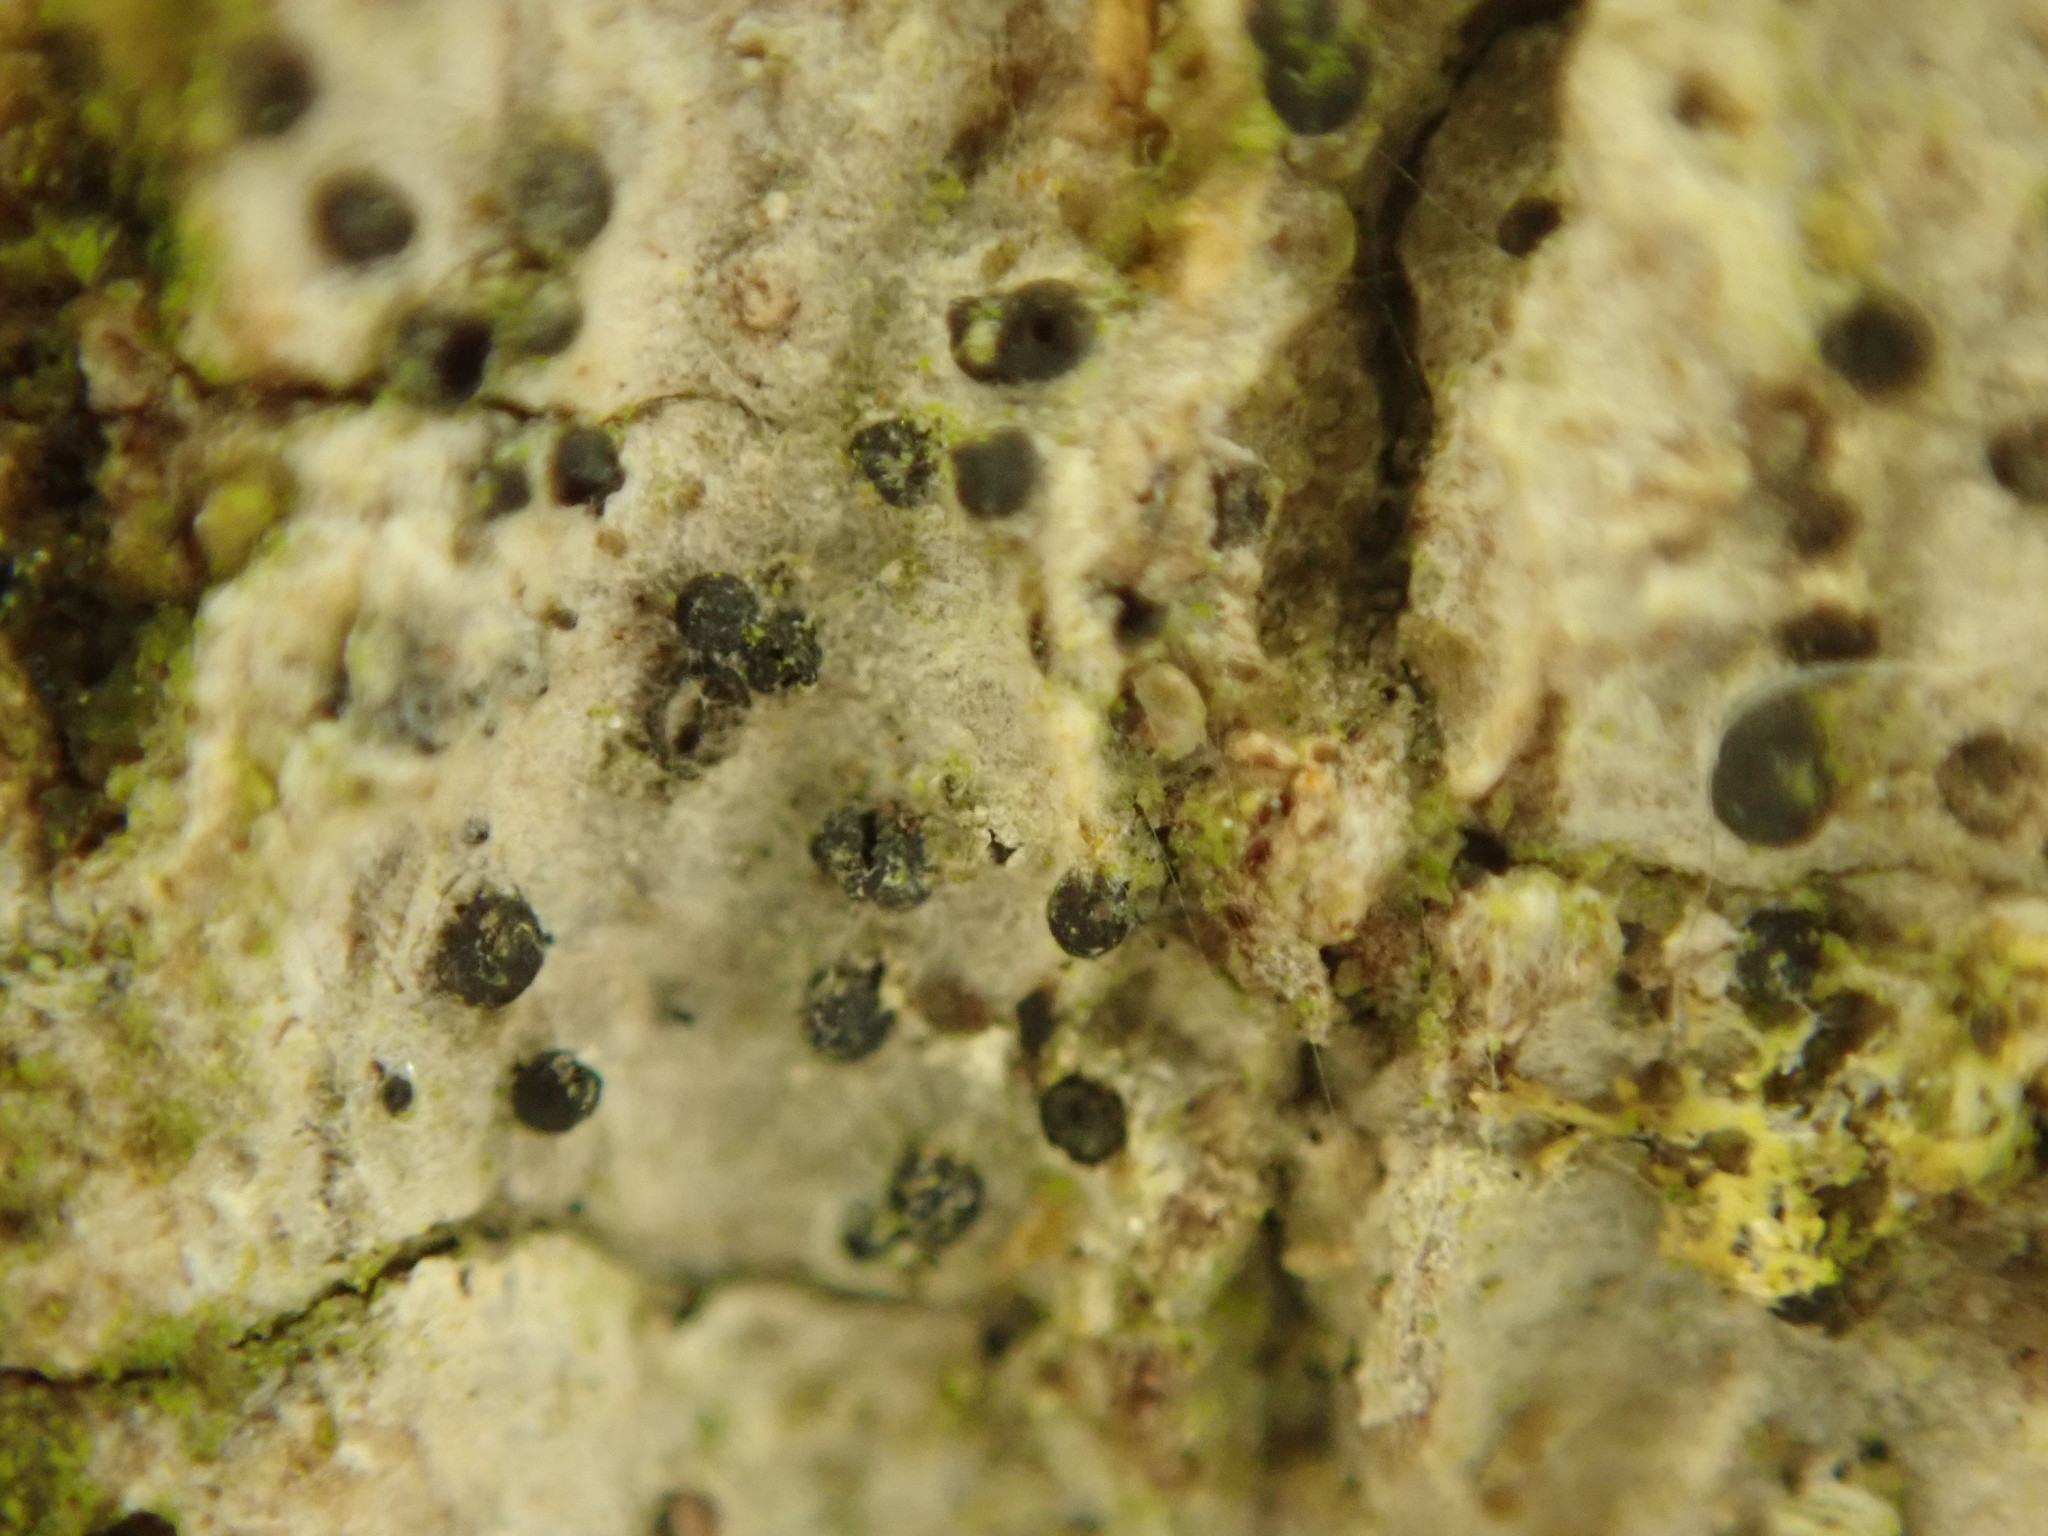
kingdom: Fungi
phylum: Ascomycota
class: Sordariomycetes
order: Amphisphaeriales
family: Amphisphaeriaceae
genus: Amphisphaeria
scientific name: Amphisphaeria bufonia
